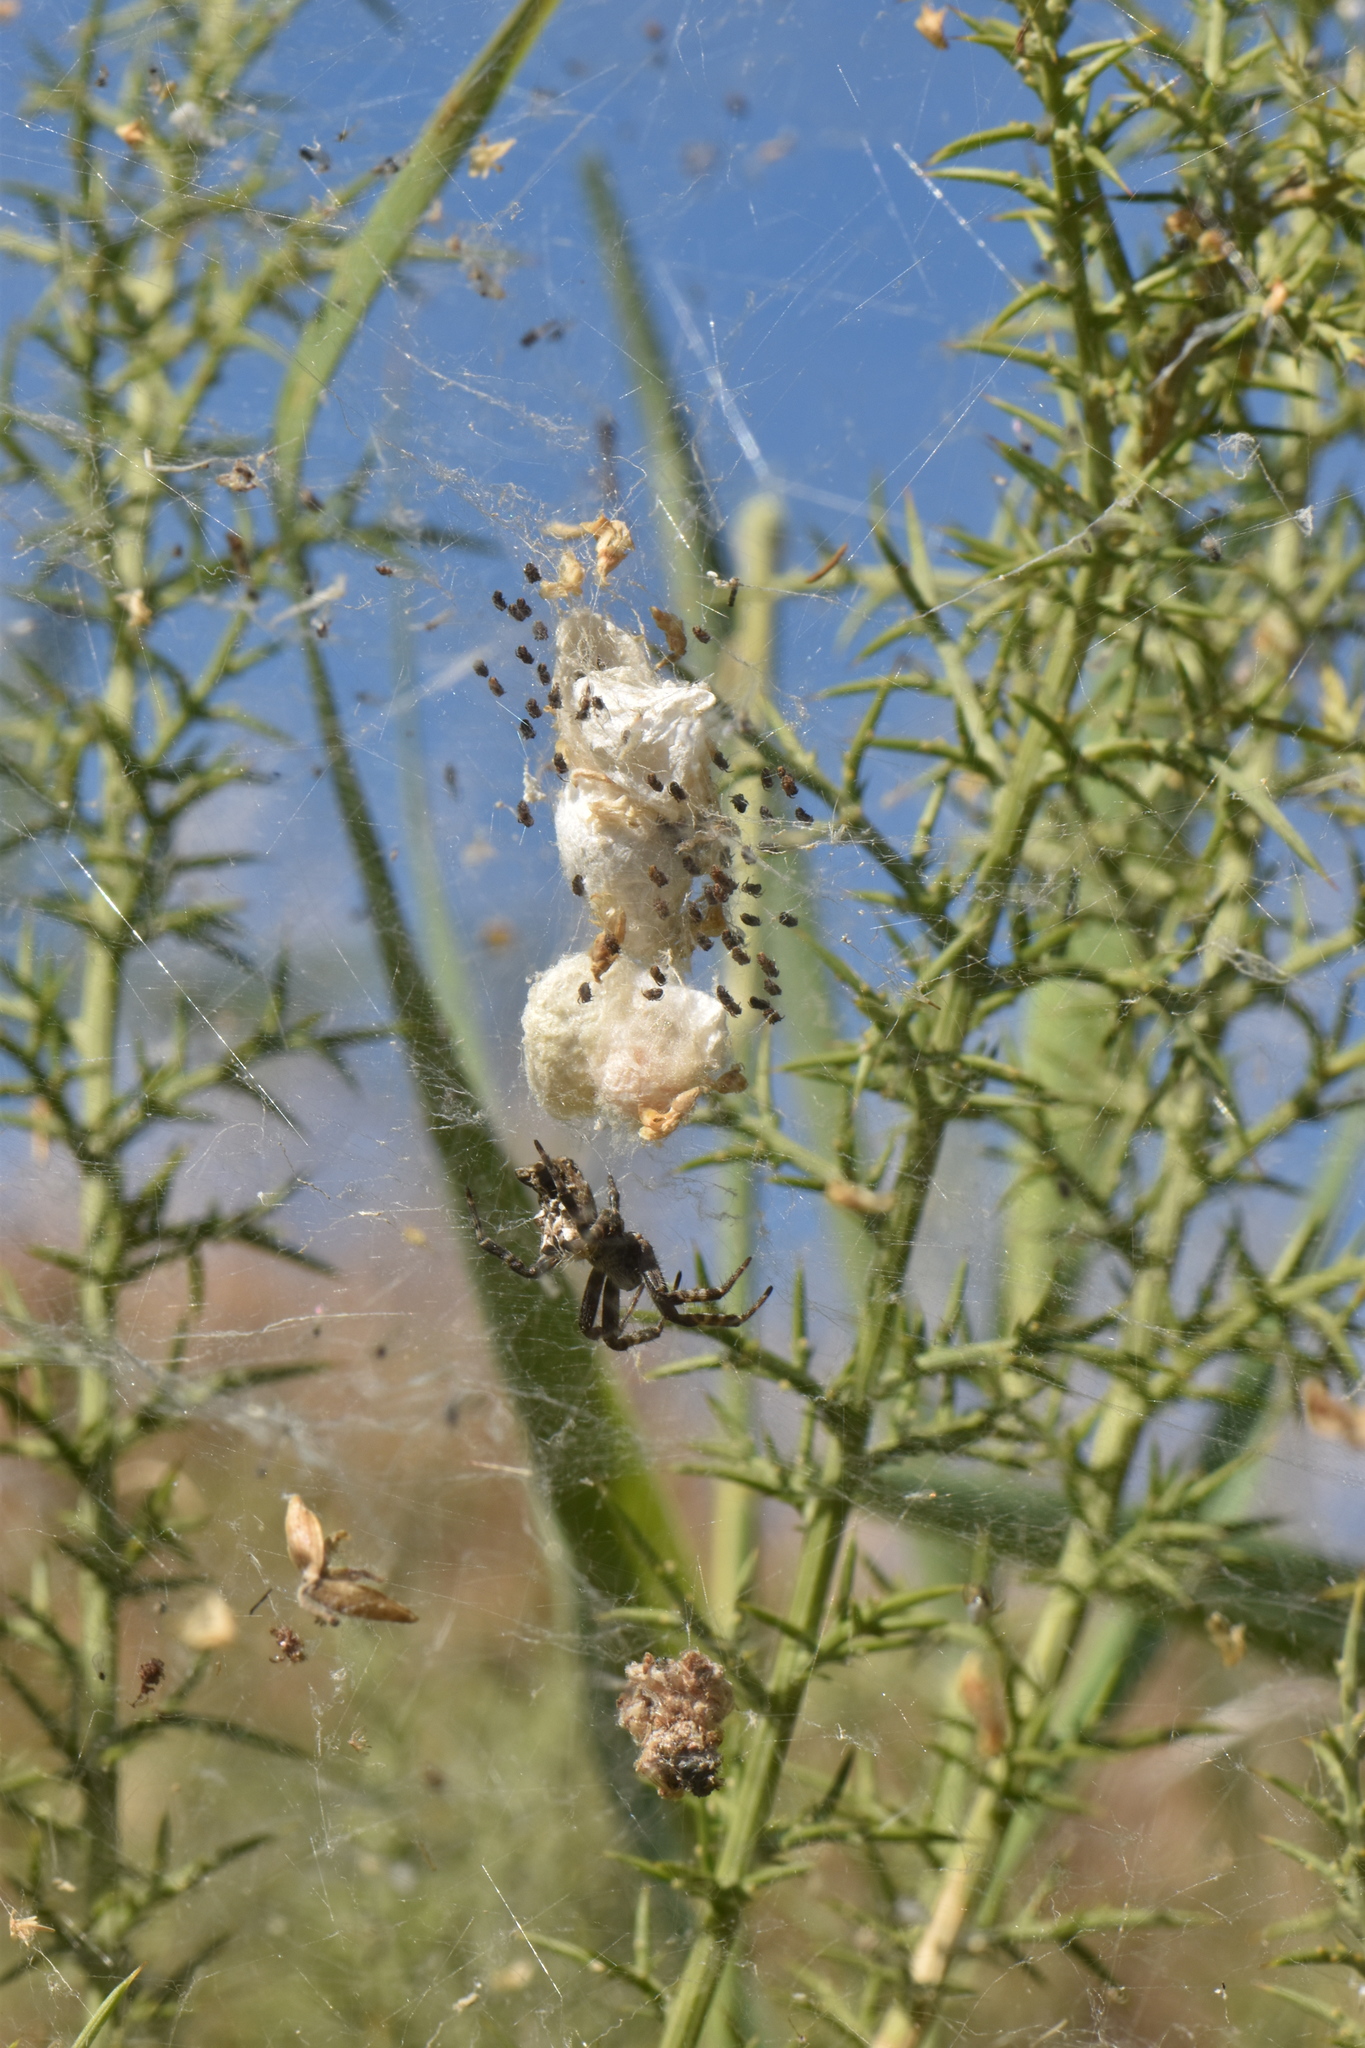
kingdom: Animalia
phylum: Arthropoda
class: Arachnida
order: Araneae
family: Araneidae
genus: Cyrtophora
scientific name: Cyrtophora citricola
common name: Orb weavers
